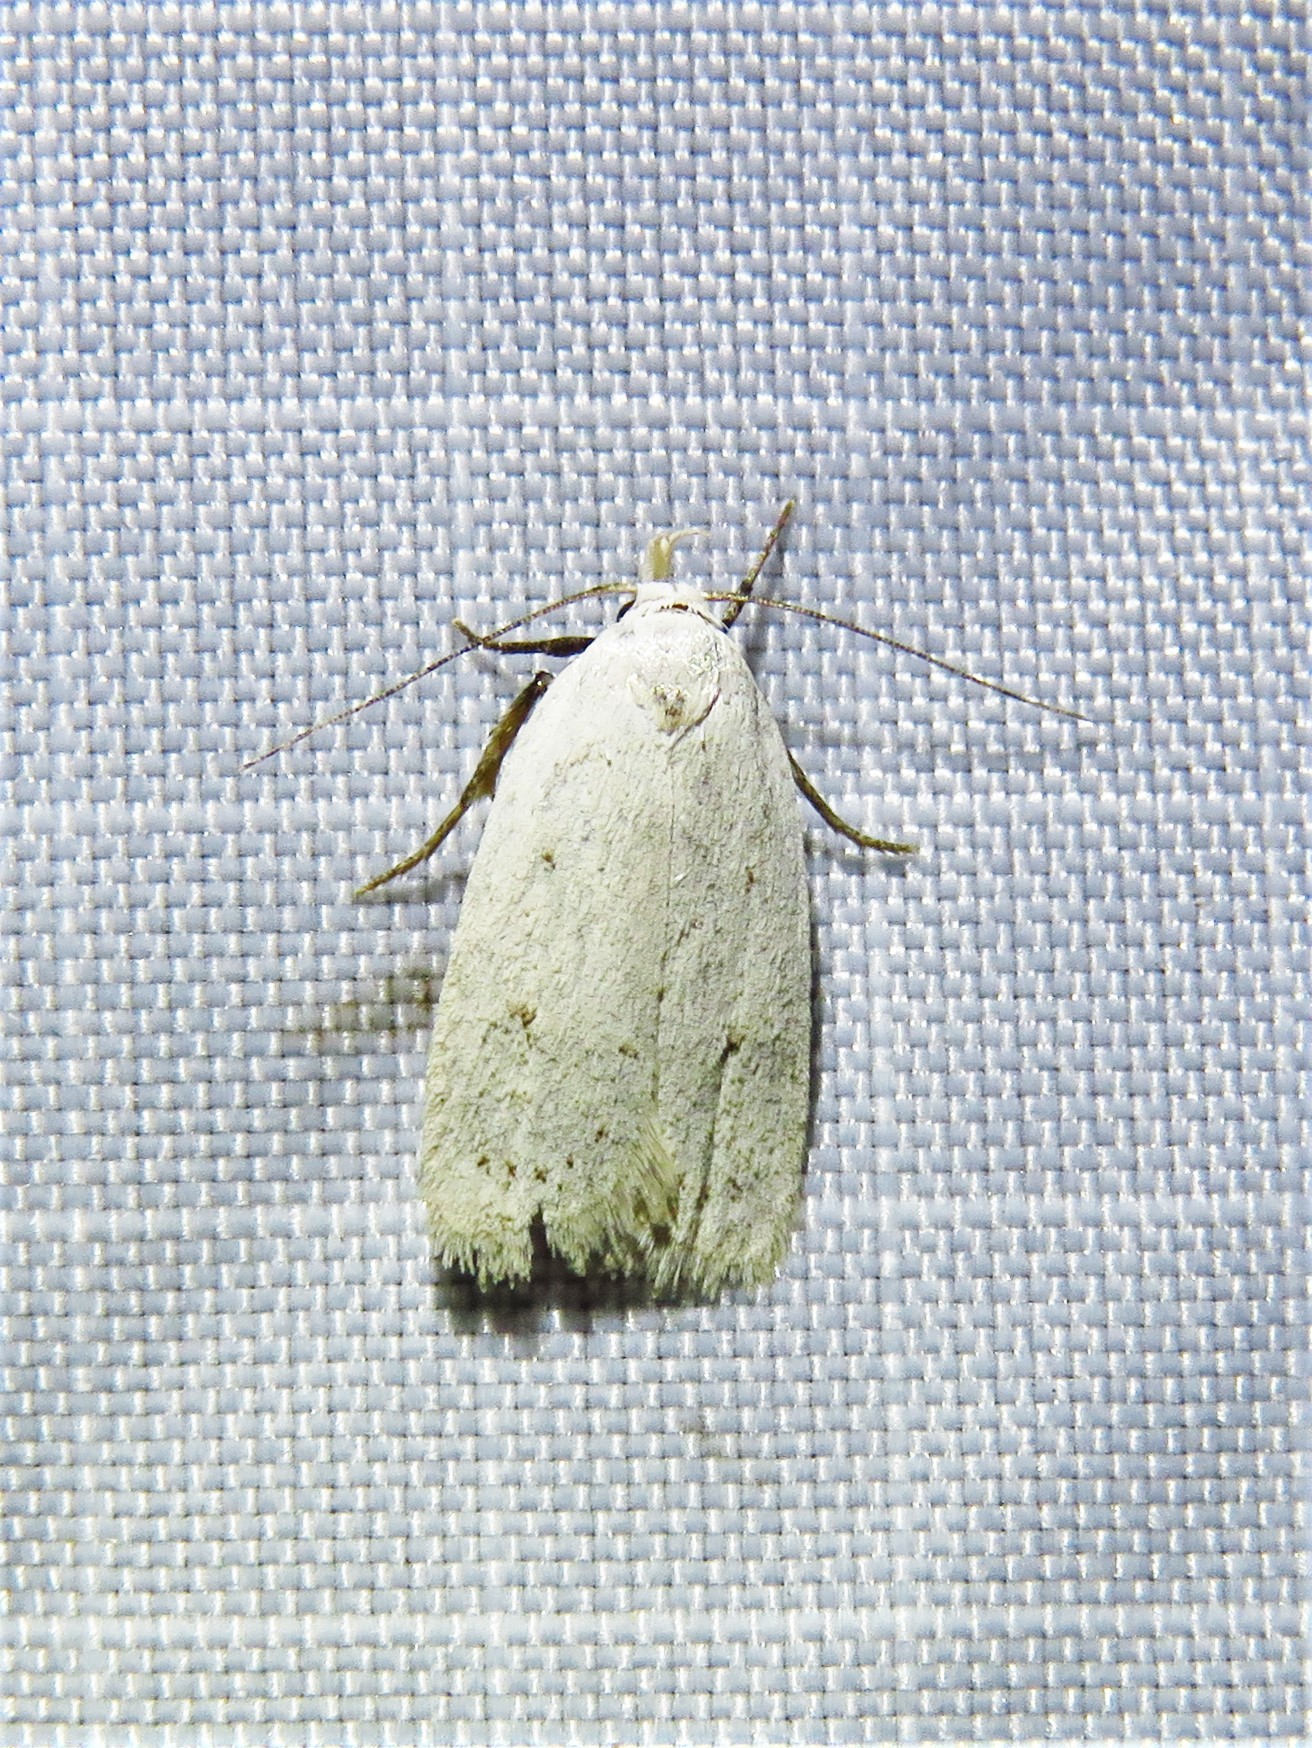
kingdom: Animalia
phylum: Arthropoda
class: Insecta
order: Lepidoptera
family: Oecophoridae
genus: Inga
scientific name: Inga cretacea
